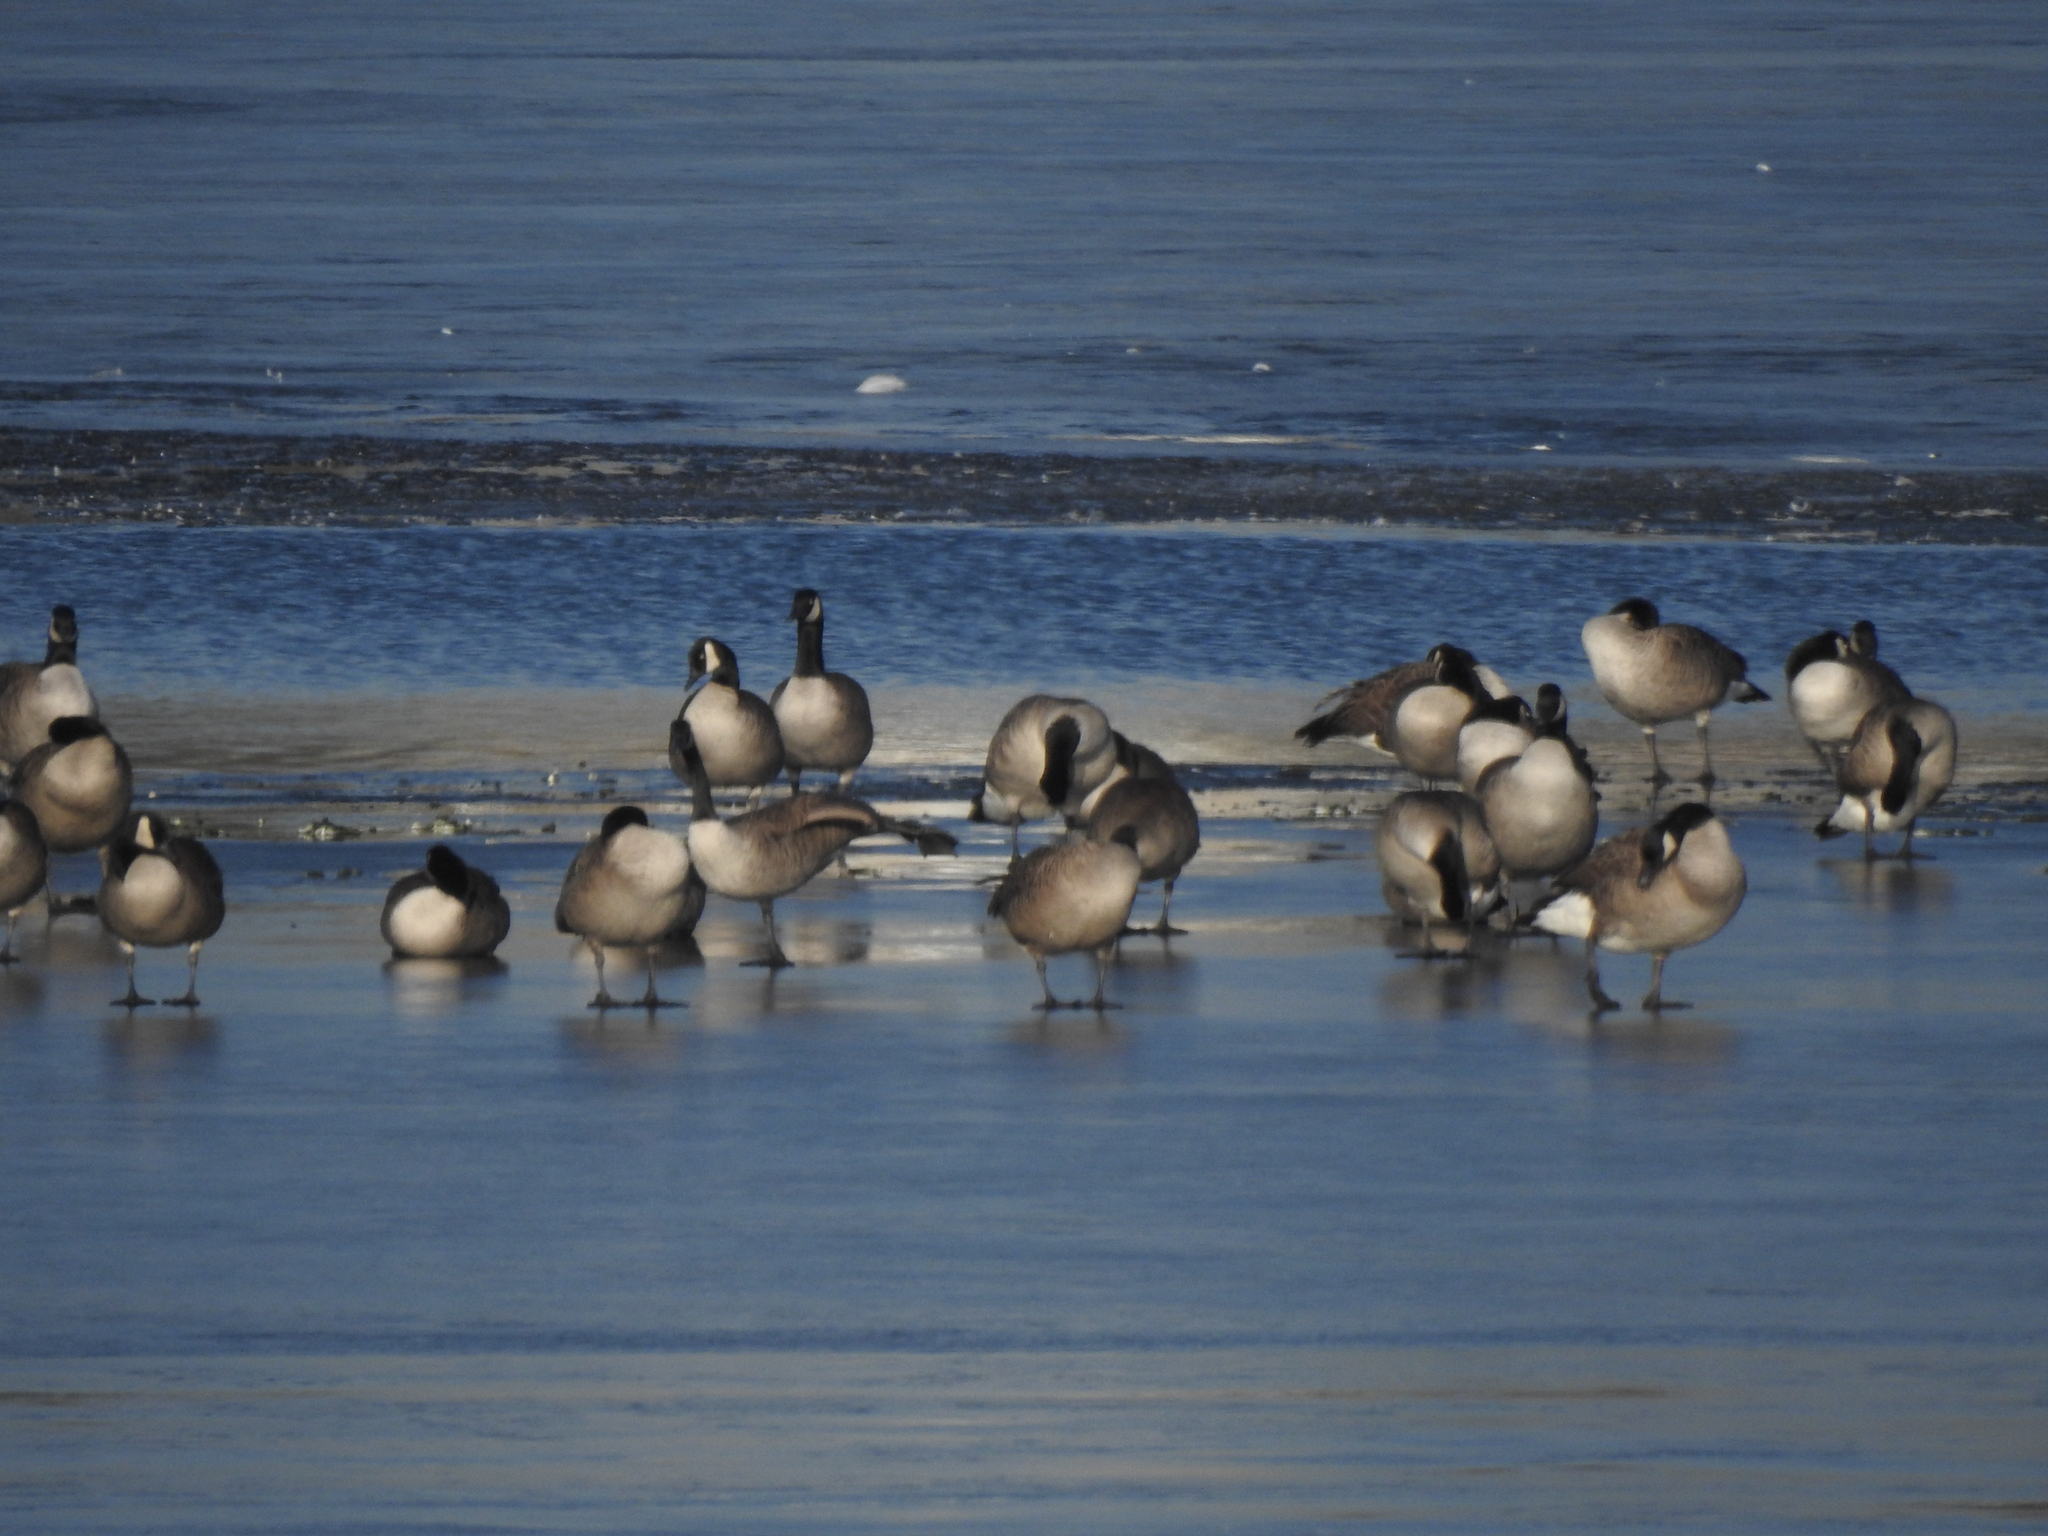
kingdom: Animalia
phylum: Chordata
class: Aves
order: Anseriformes
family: Anatidae
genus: Branta
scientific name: Branta canadensis
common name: Canada goose
